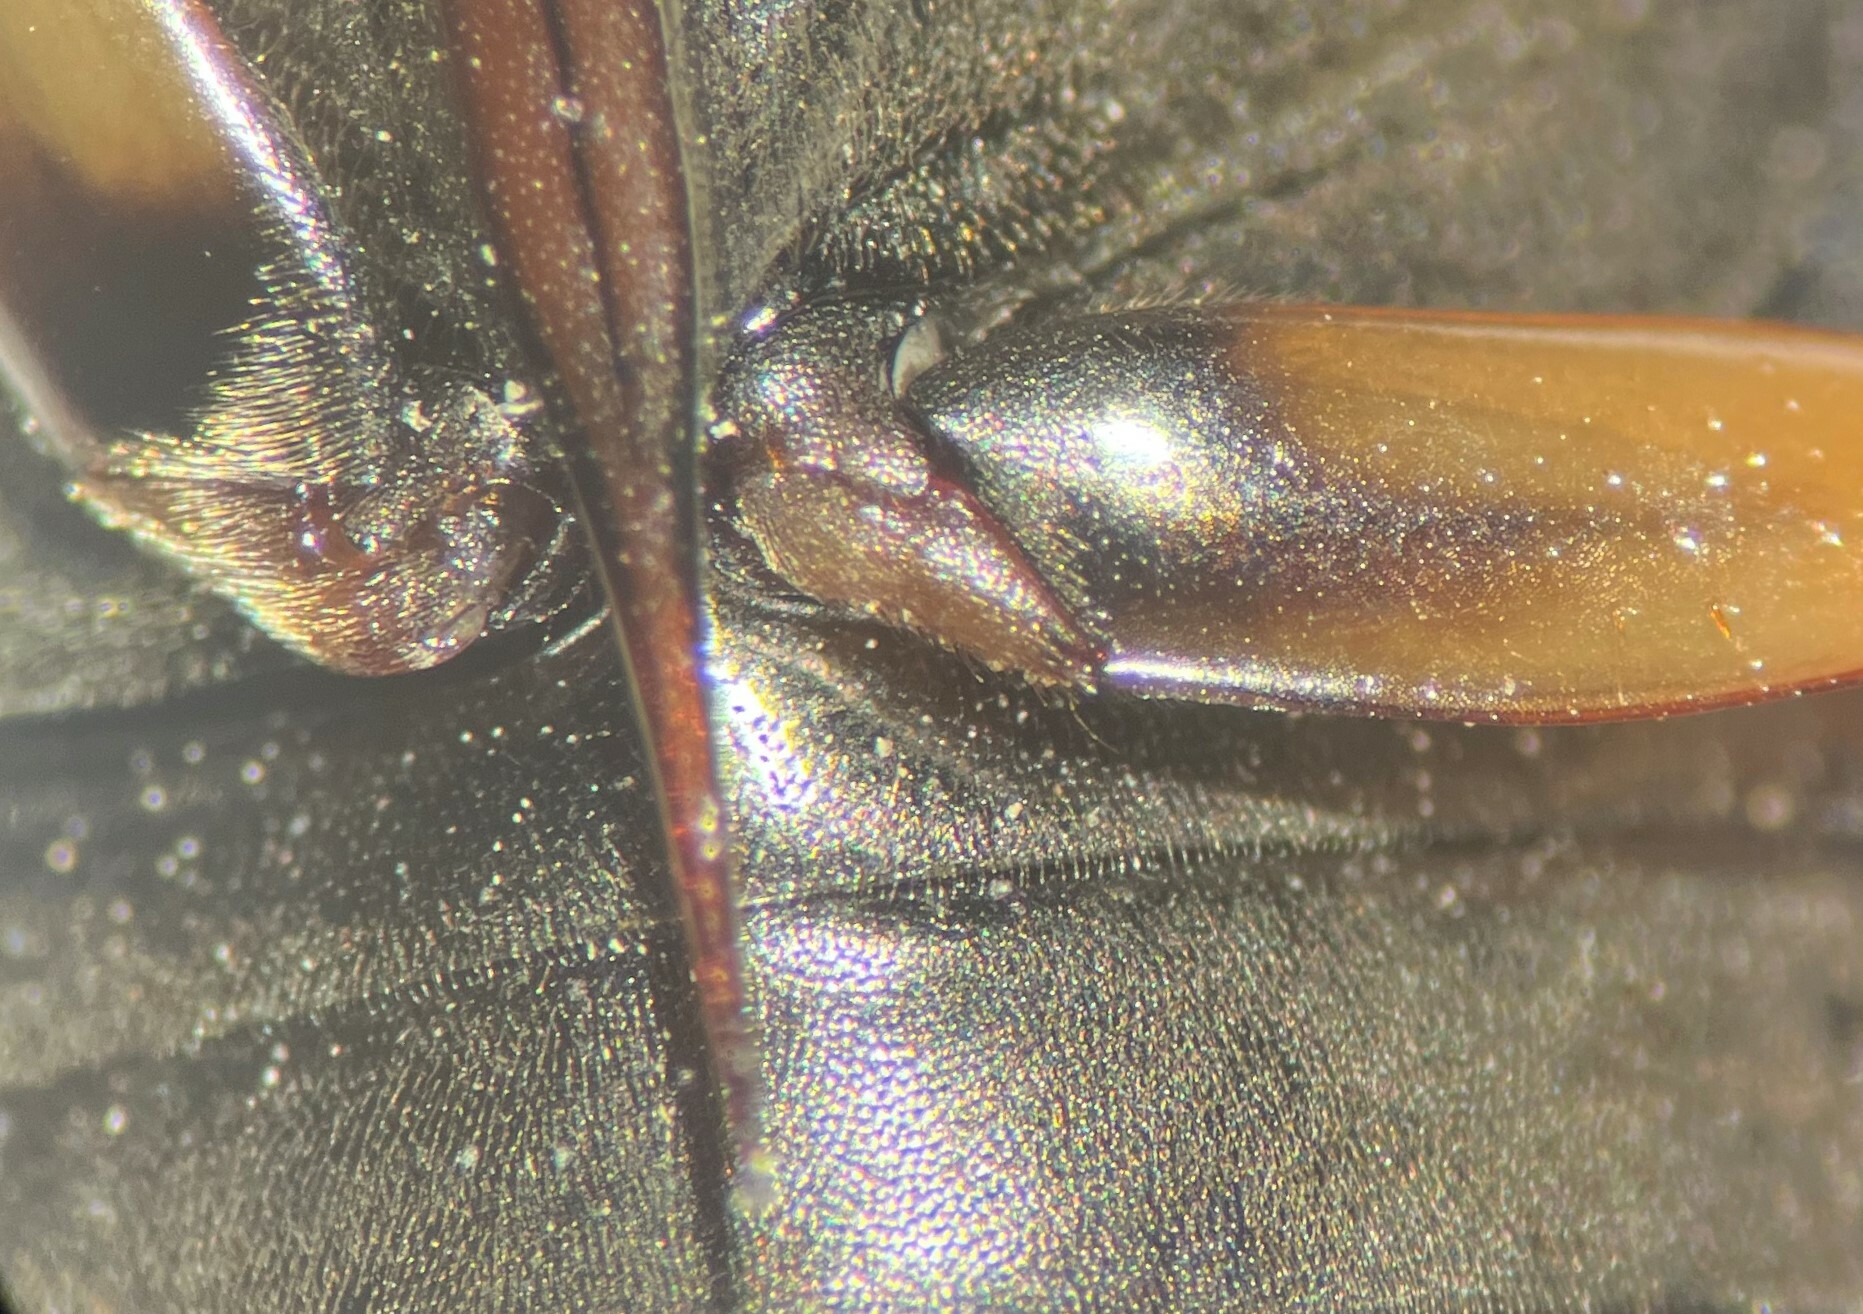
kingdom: Animalia
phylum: Arthropoda
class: Insecta
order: Coleoptera
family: Hydrophilidae
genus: Tropisternus
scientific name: Tropisternus sublaevis
